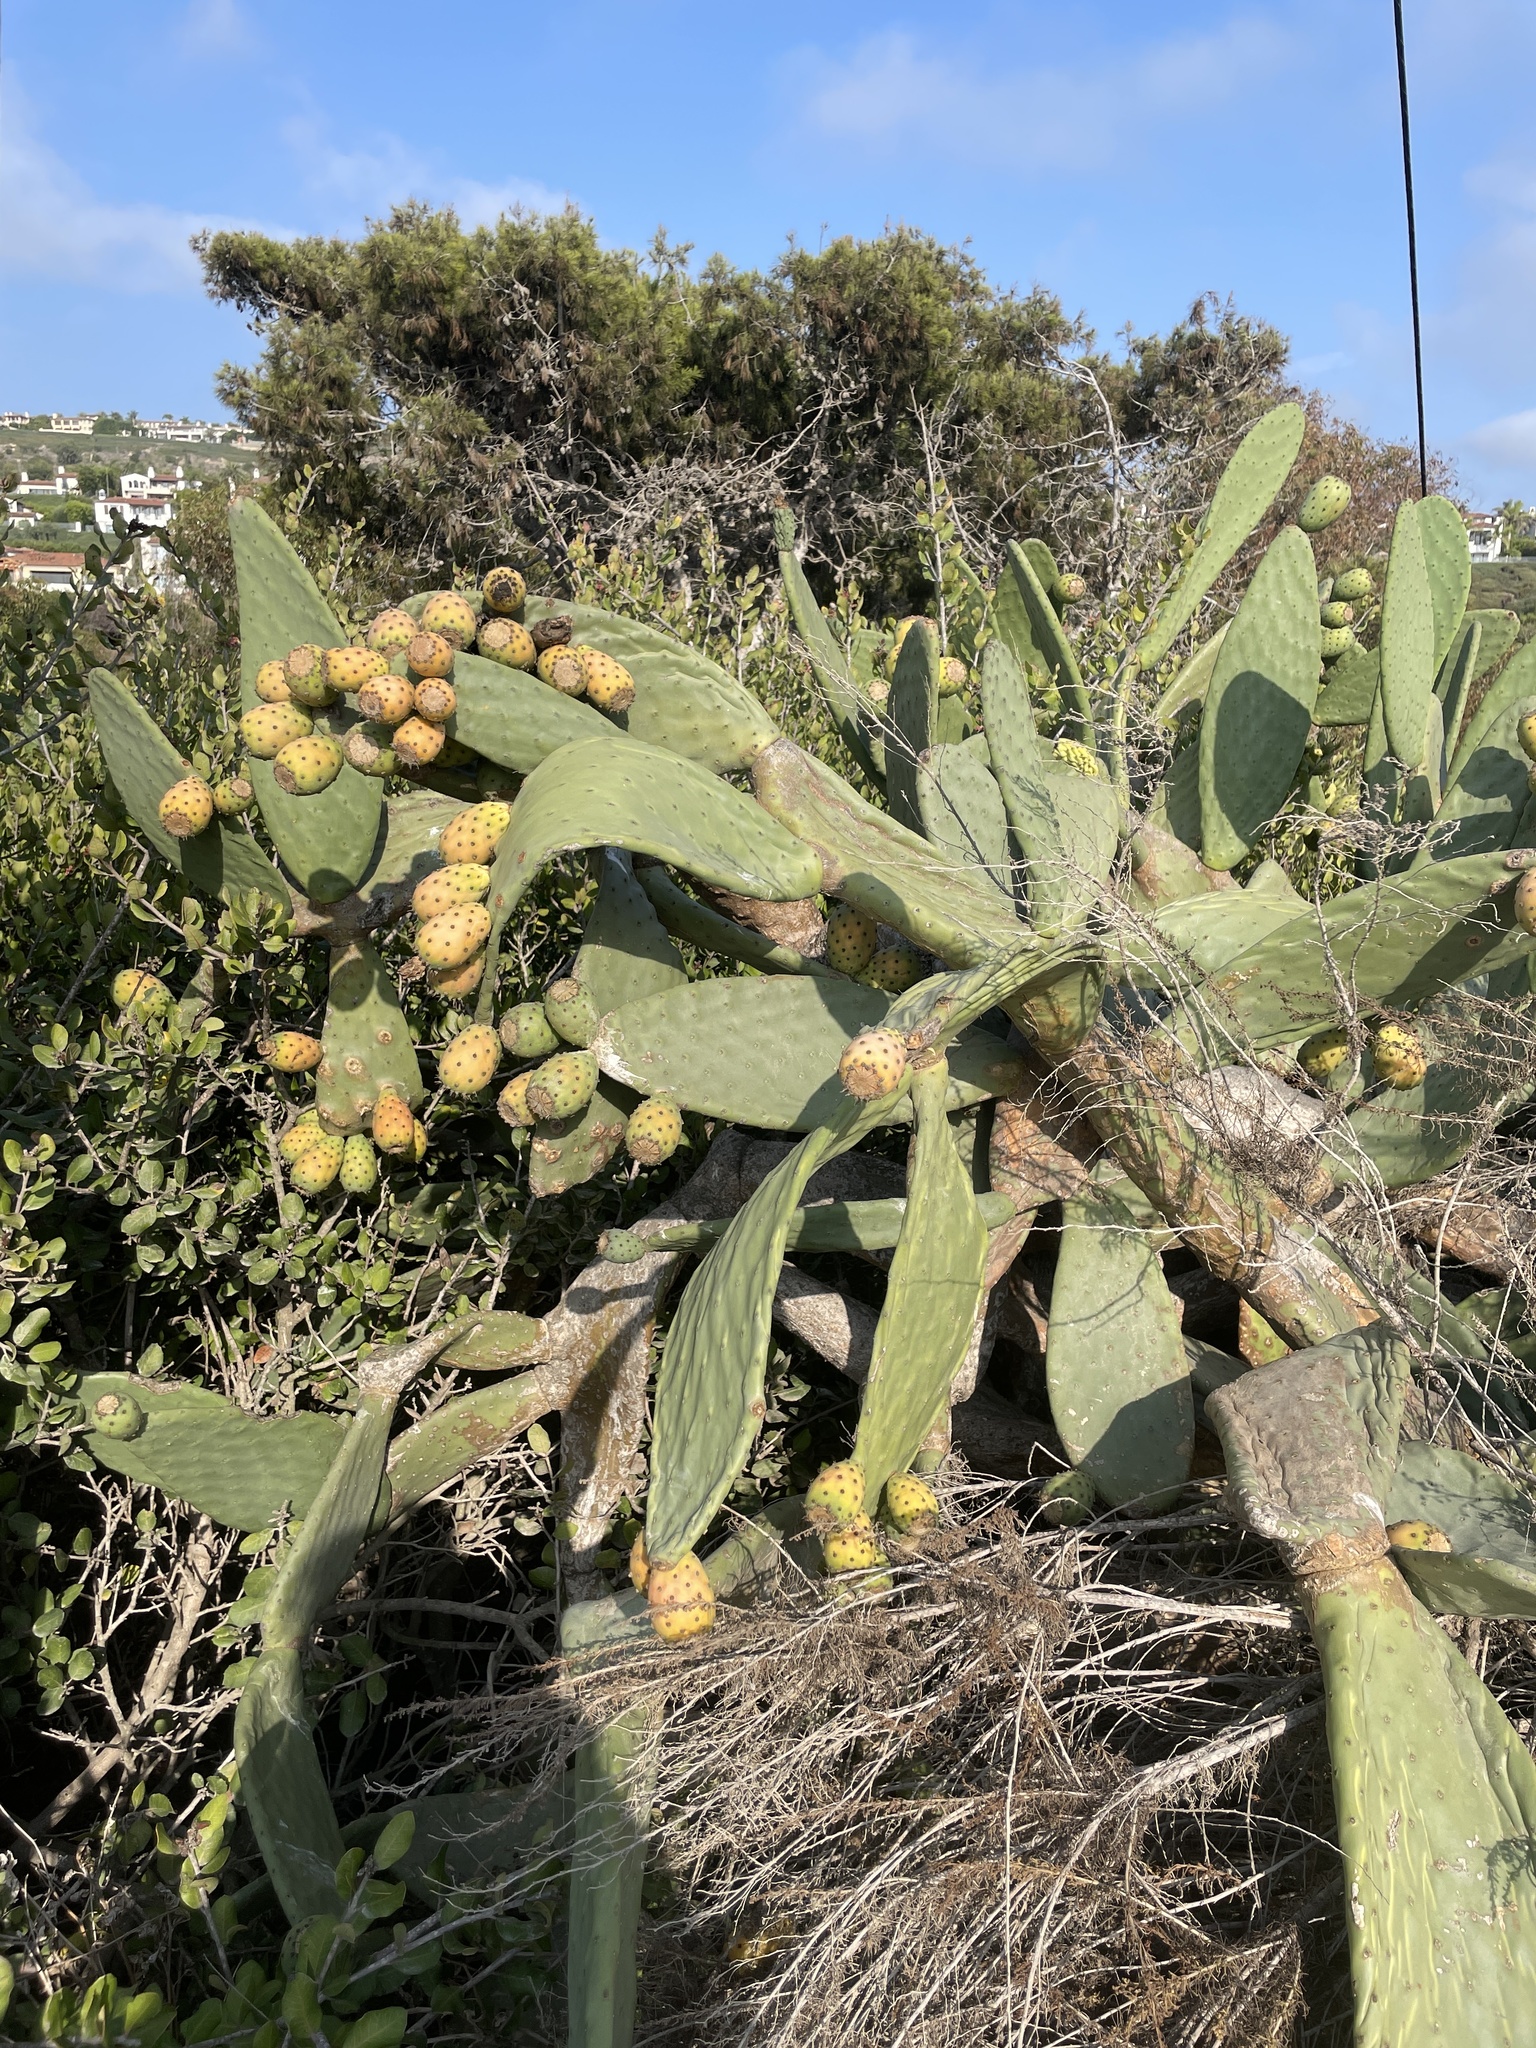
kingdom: Plantae
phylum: Tracheophyta
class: Magnoliopsida
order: Caryophyllales
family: Cactaceae
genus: Opuntia
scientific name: Opuntia ficus-indica
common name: Barbary fig
